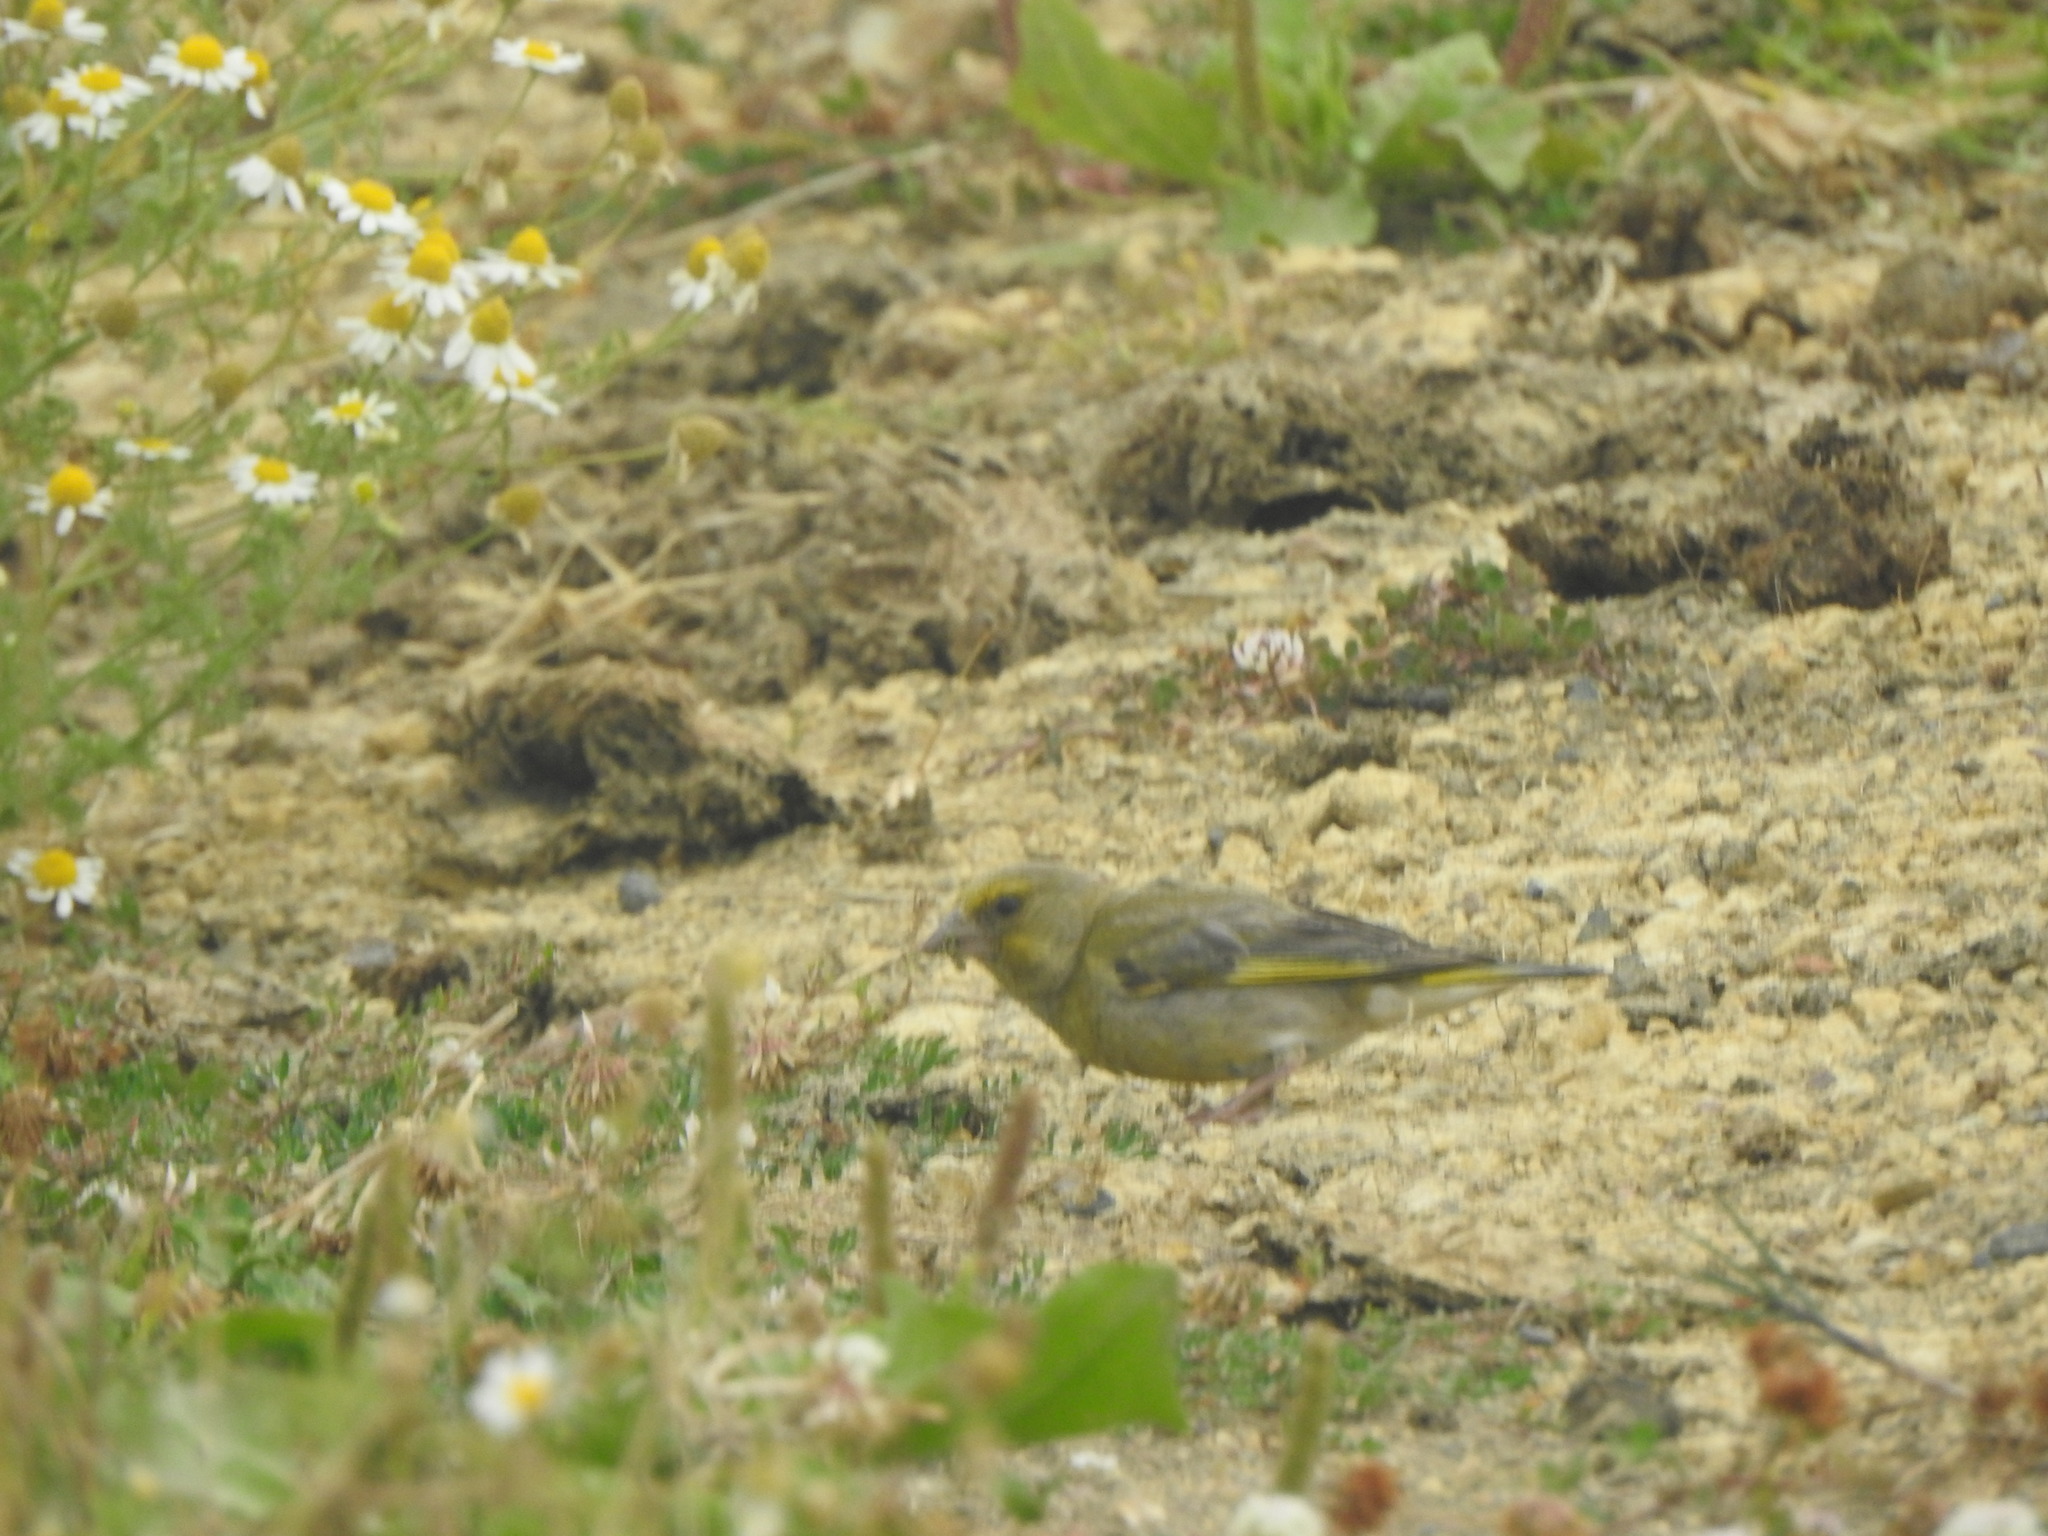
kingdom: Plantae
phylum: Tracheophyta
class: Liliopsida
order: Poales
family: Poaceae
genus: Chloris
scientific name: Chloris chloris
